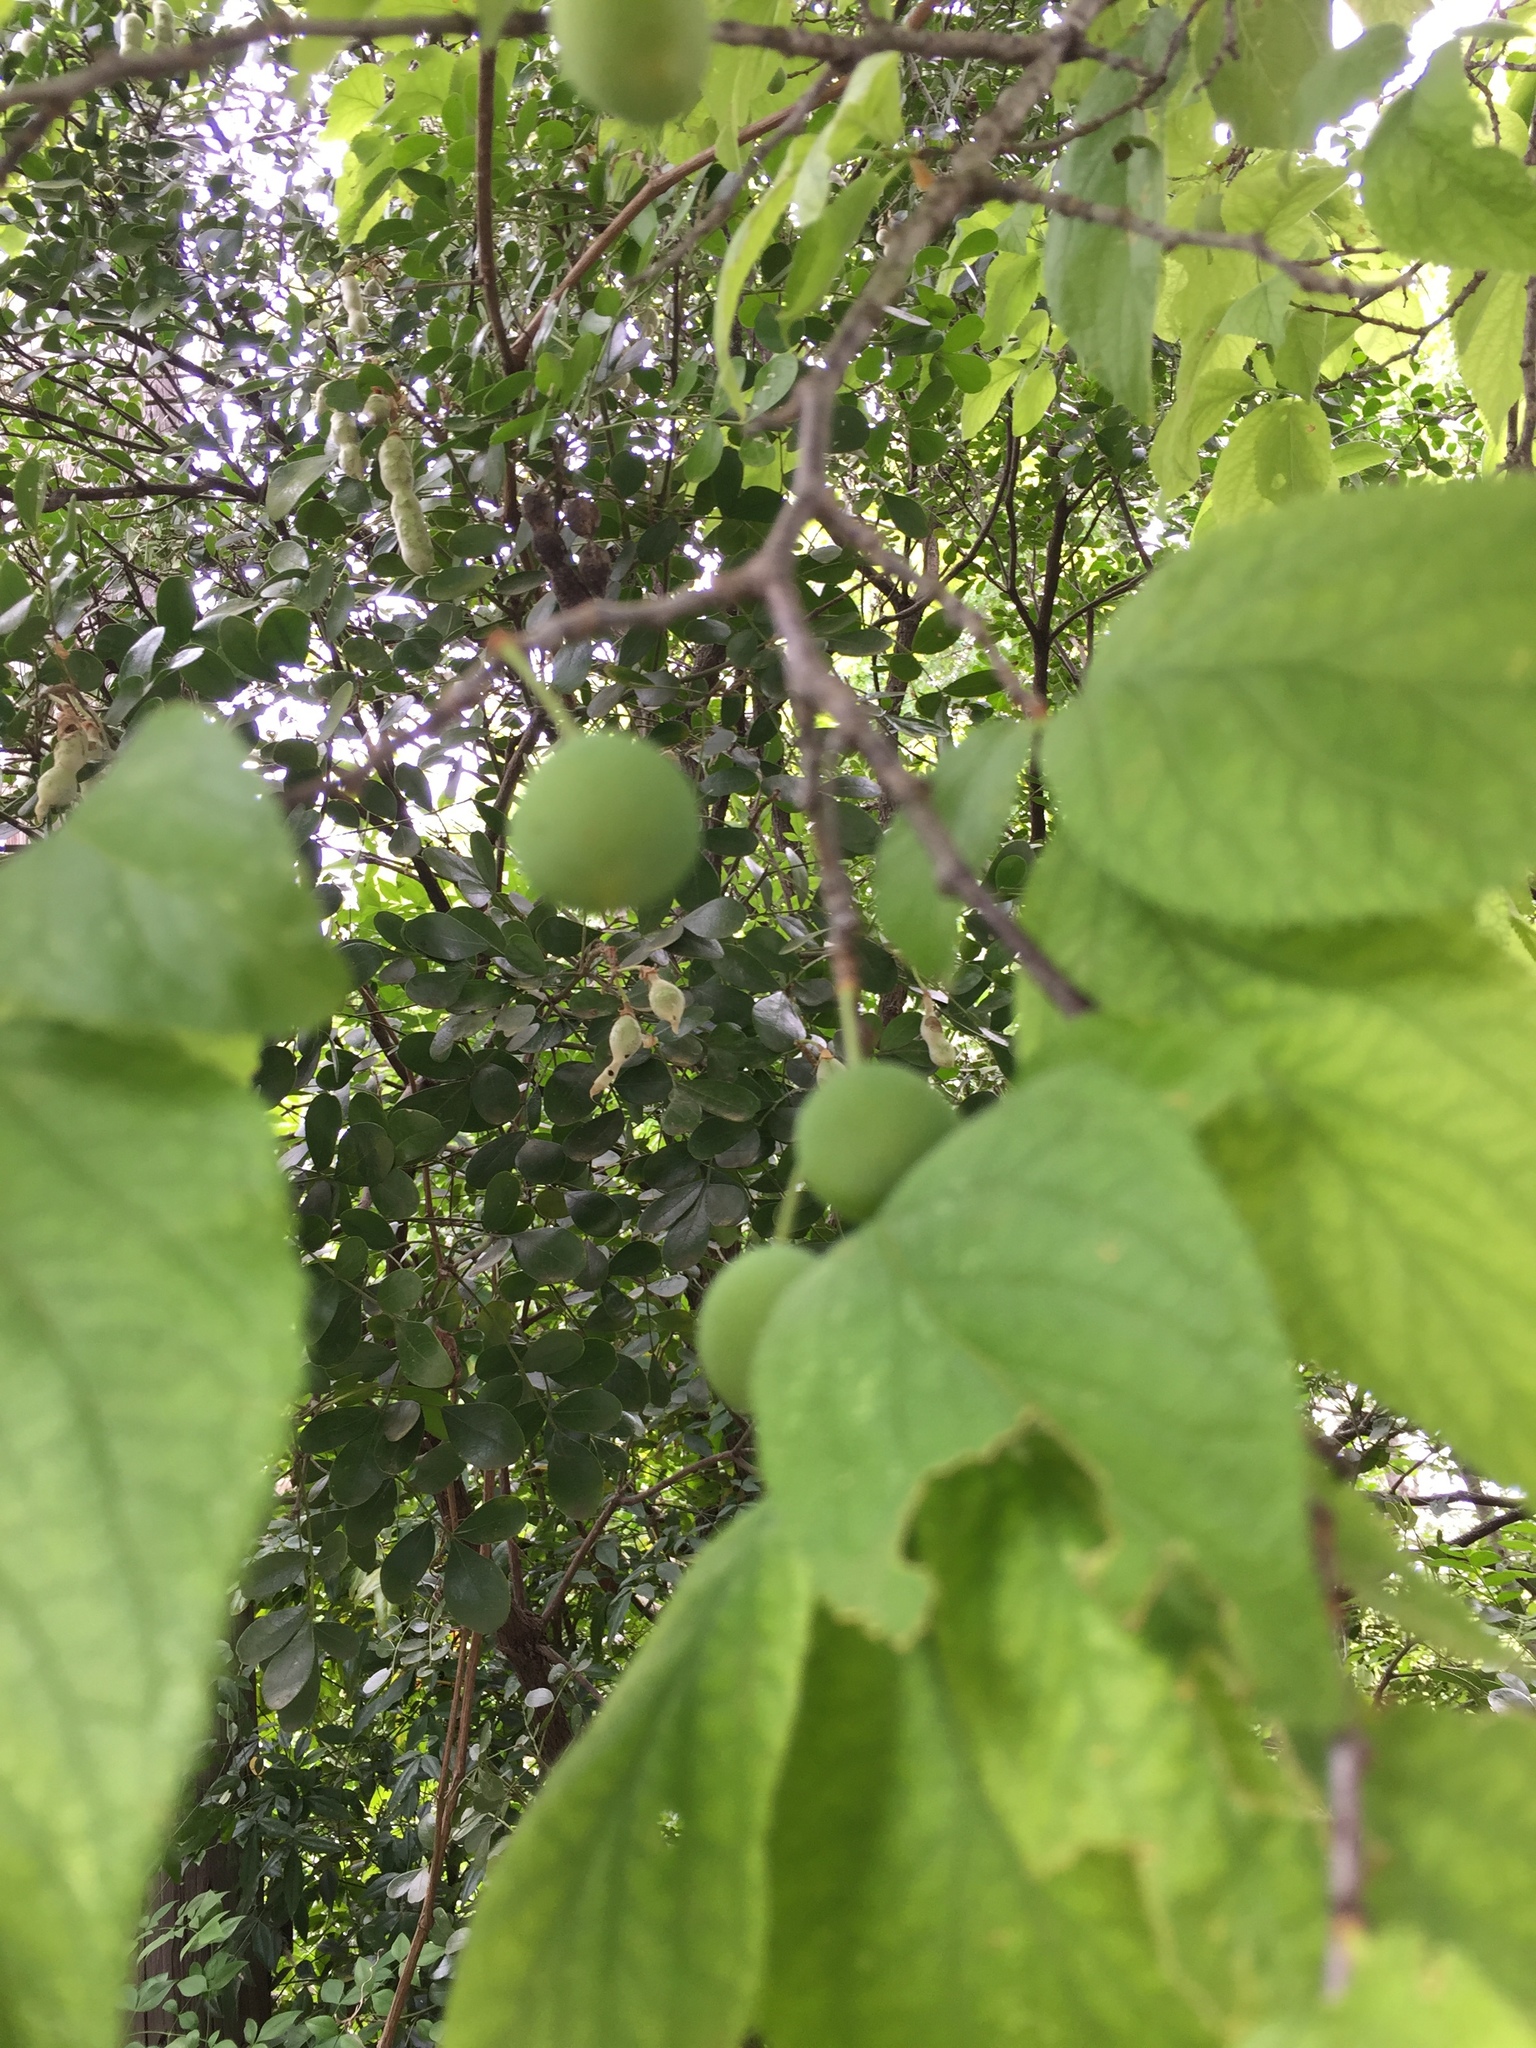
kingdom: Plantae
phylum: Tracheophyta
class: Magnoliopsida
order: Rosales
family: Rosaceae
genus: Prunus
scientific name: Prunus mexicana
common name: Mexican plum
